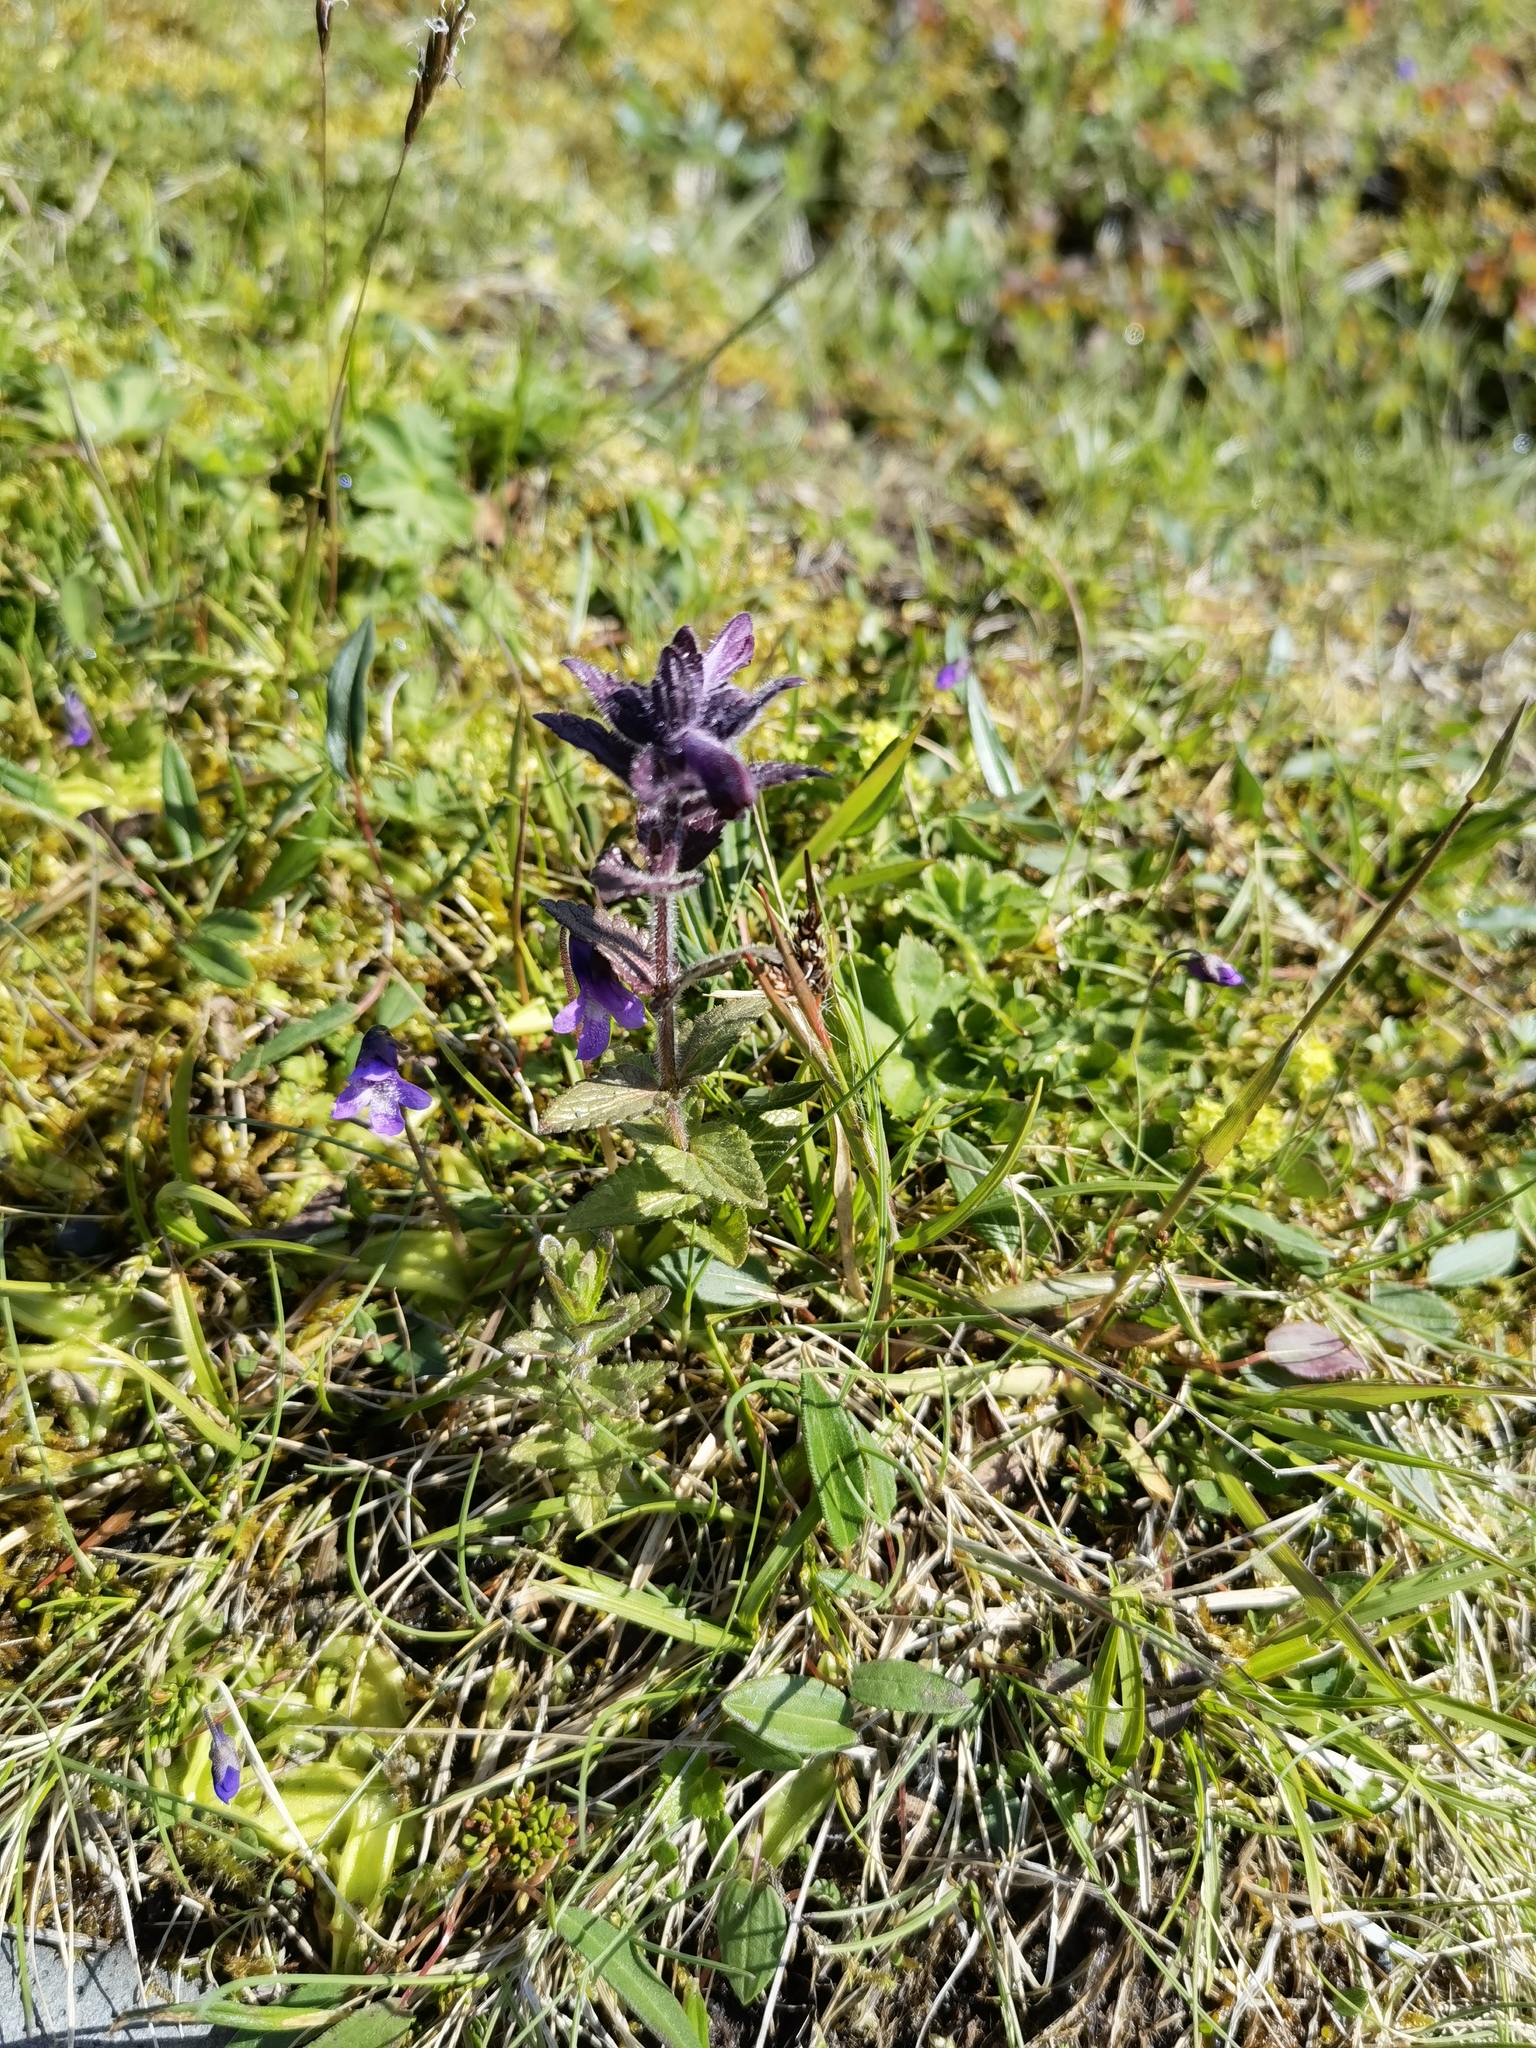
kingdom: Plantae
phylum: Tracheophyta
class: Magnoliopsida
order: Lamiales
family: Orobanchaceae
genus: Bartsia
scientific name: Bartsia alpina
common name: Alpine bartsia
